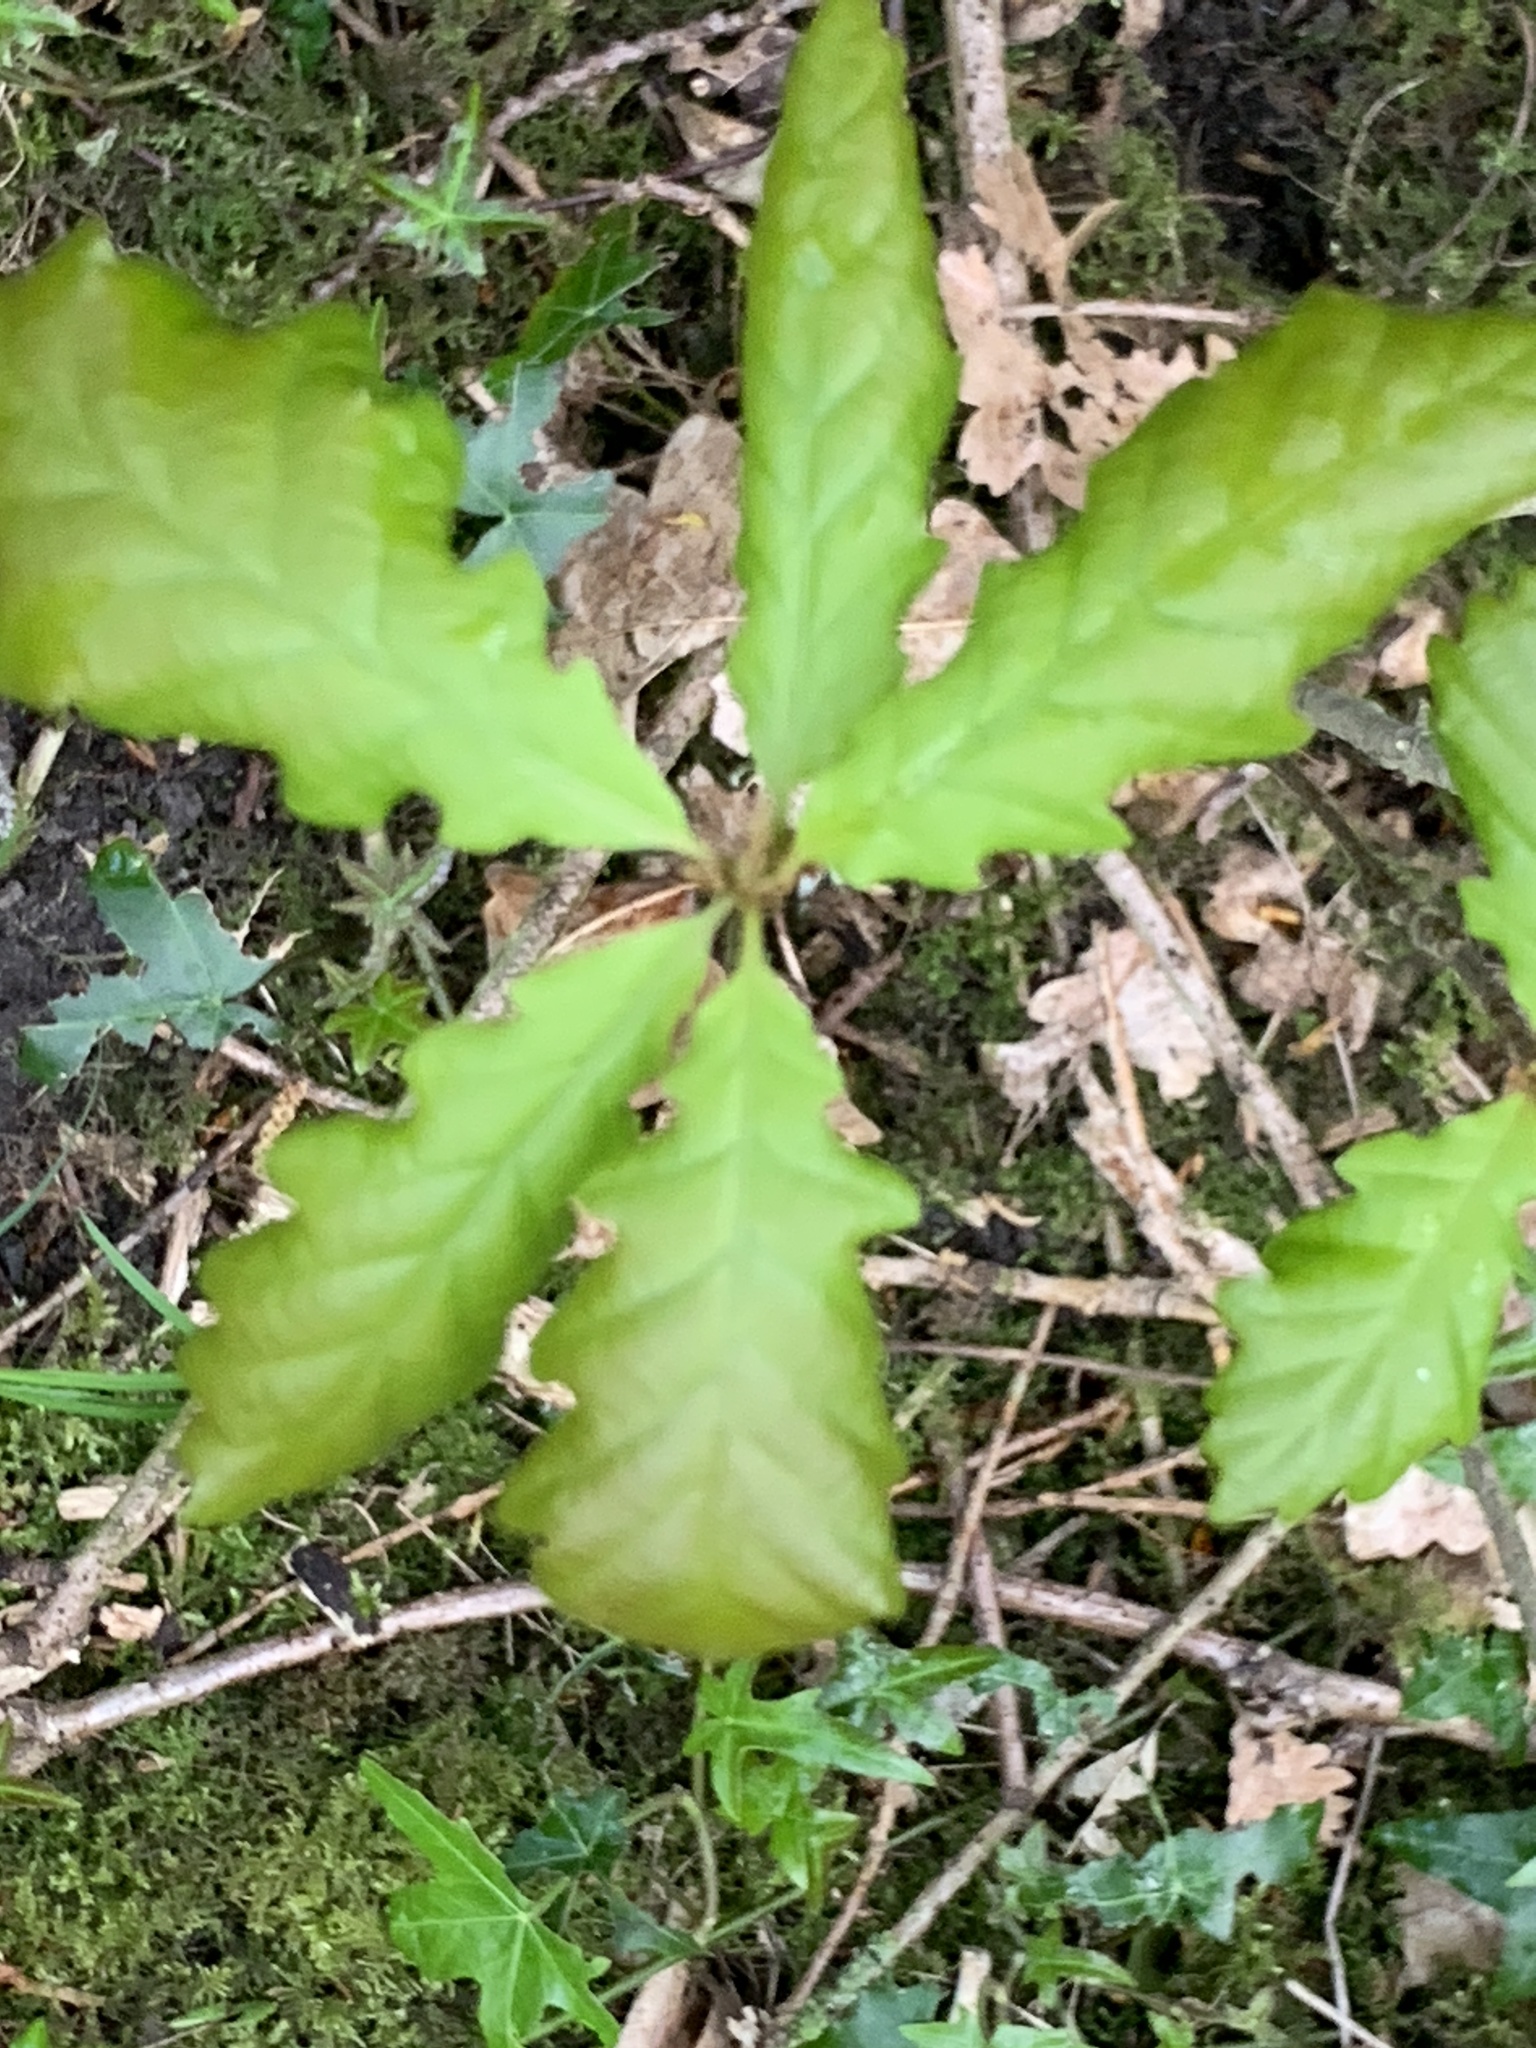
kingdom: Plantae
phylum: Tracheophyta
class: Magnoliopsida
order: Fagales
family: Fagaceae
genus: Quercus
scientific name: Quercus robur
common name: Pedunculate oak
